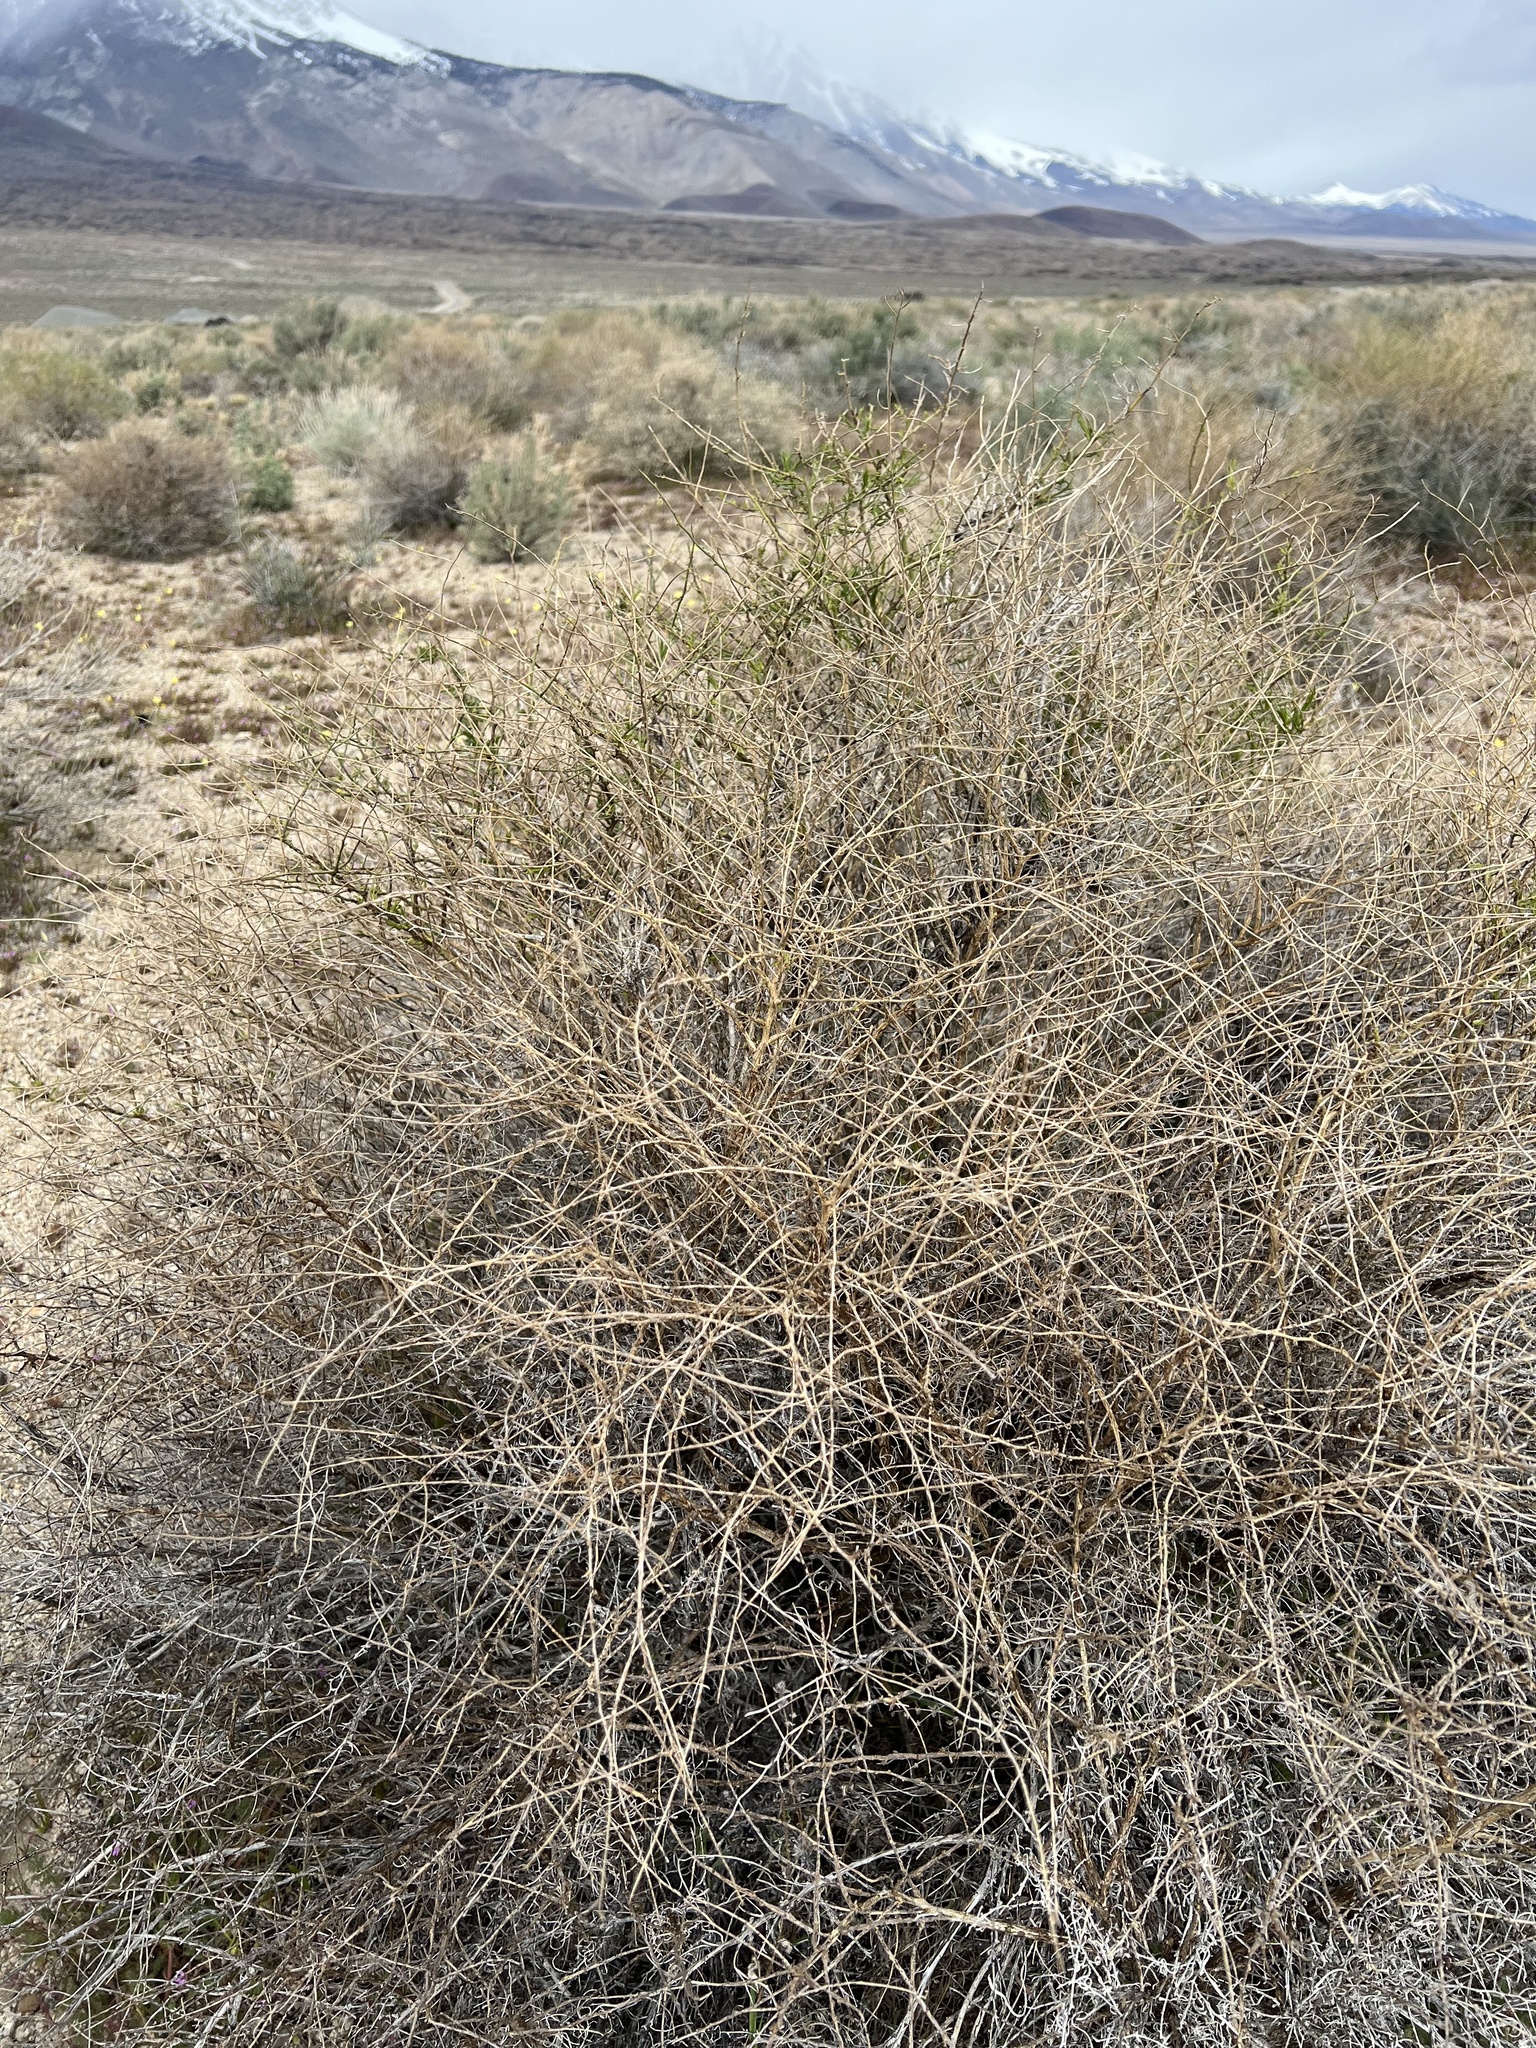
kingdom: Plantae
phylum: Tracheophyta
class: Magnoliopsida
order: Asterales
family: Asteraceae
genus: Ambrosia
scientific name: Ambrosia salsola
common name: Burrobrush
